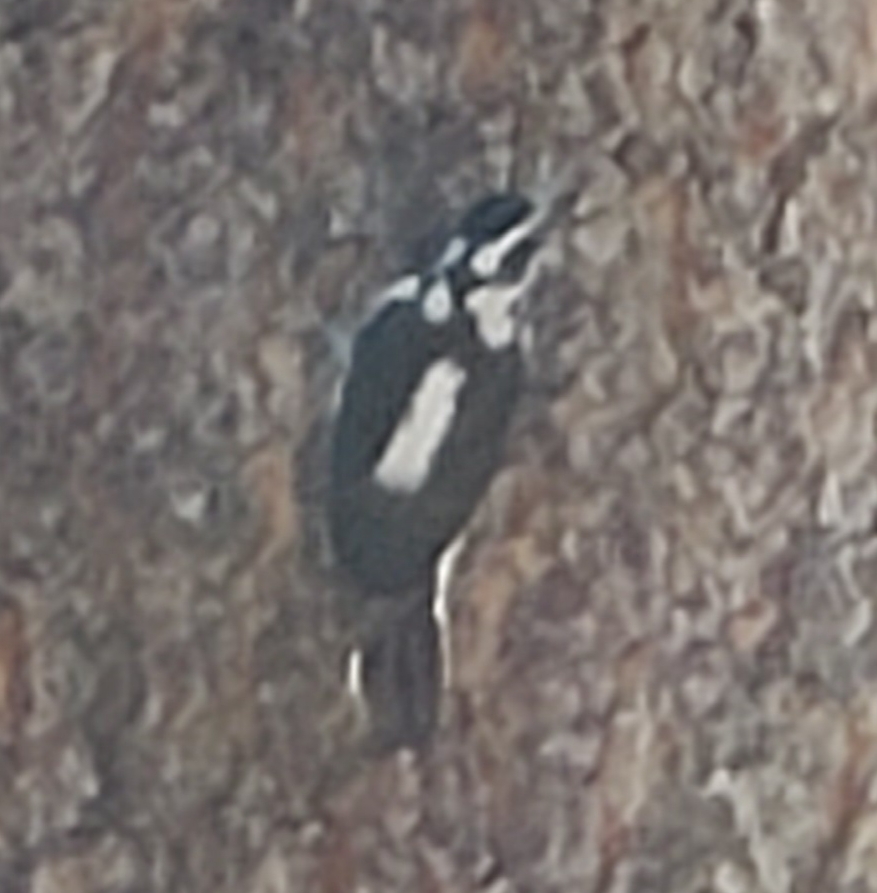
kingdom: Animalia
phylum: Chordata
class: Aves
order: Piciformes
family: Picidae
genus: Leuconotopicus
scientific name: Leuconotopicus villosus
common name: Hairy woodpecker
